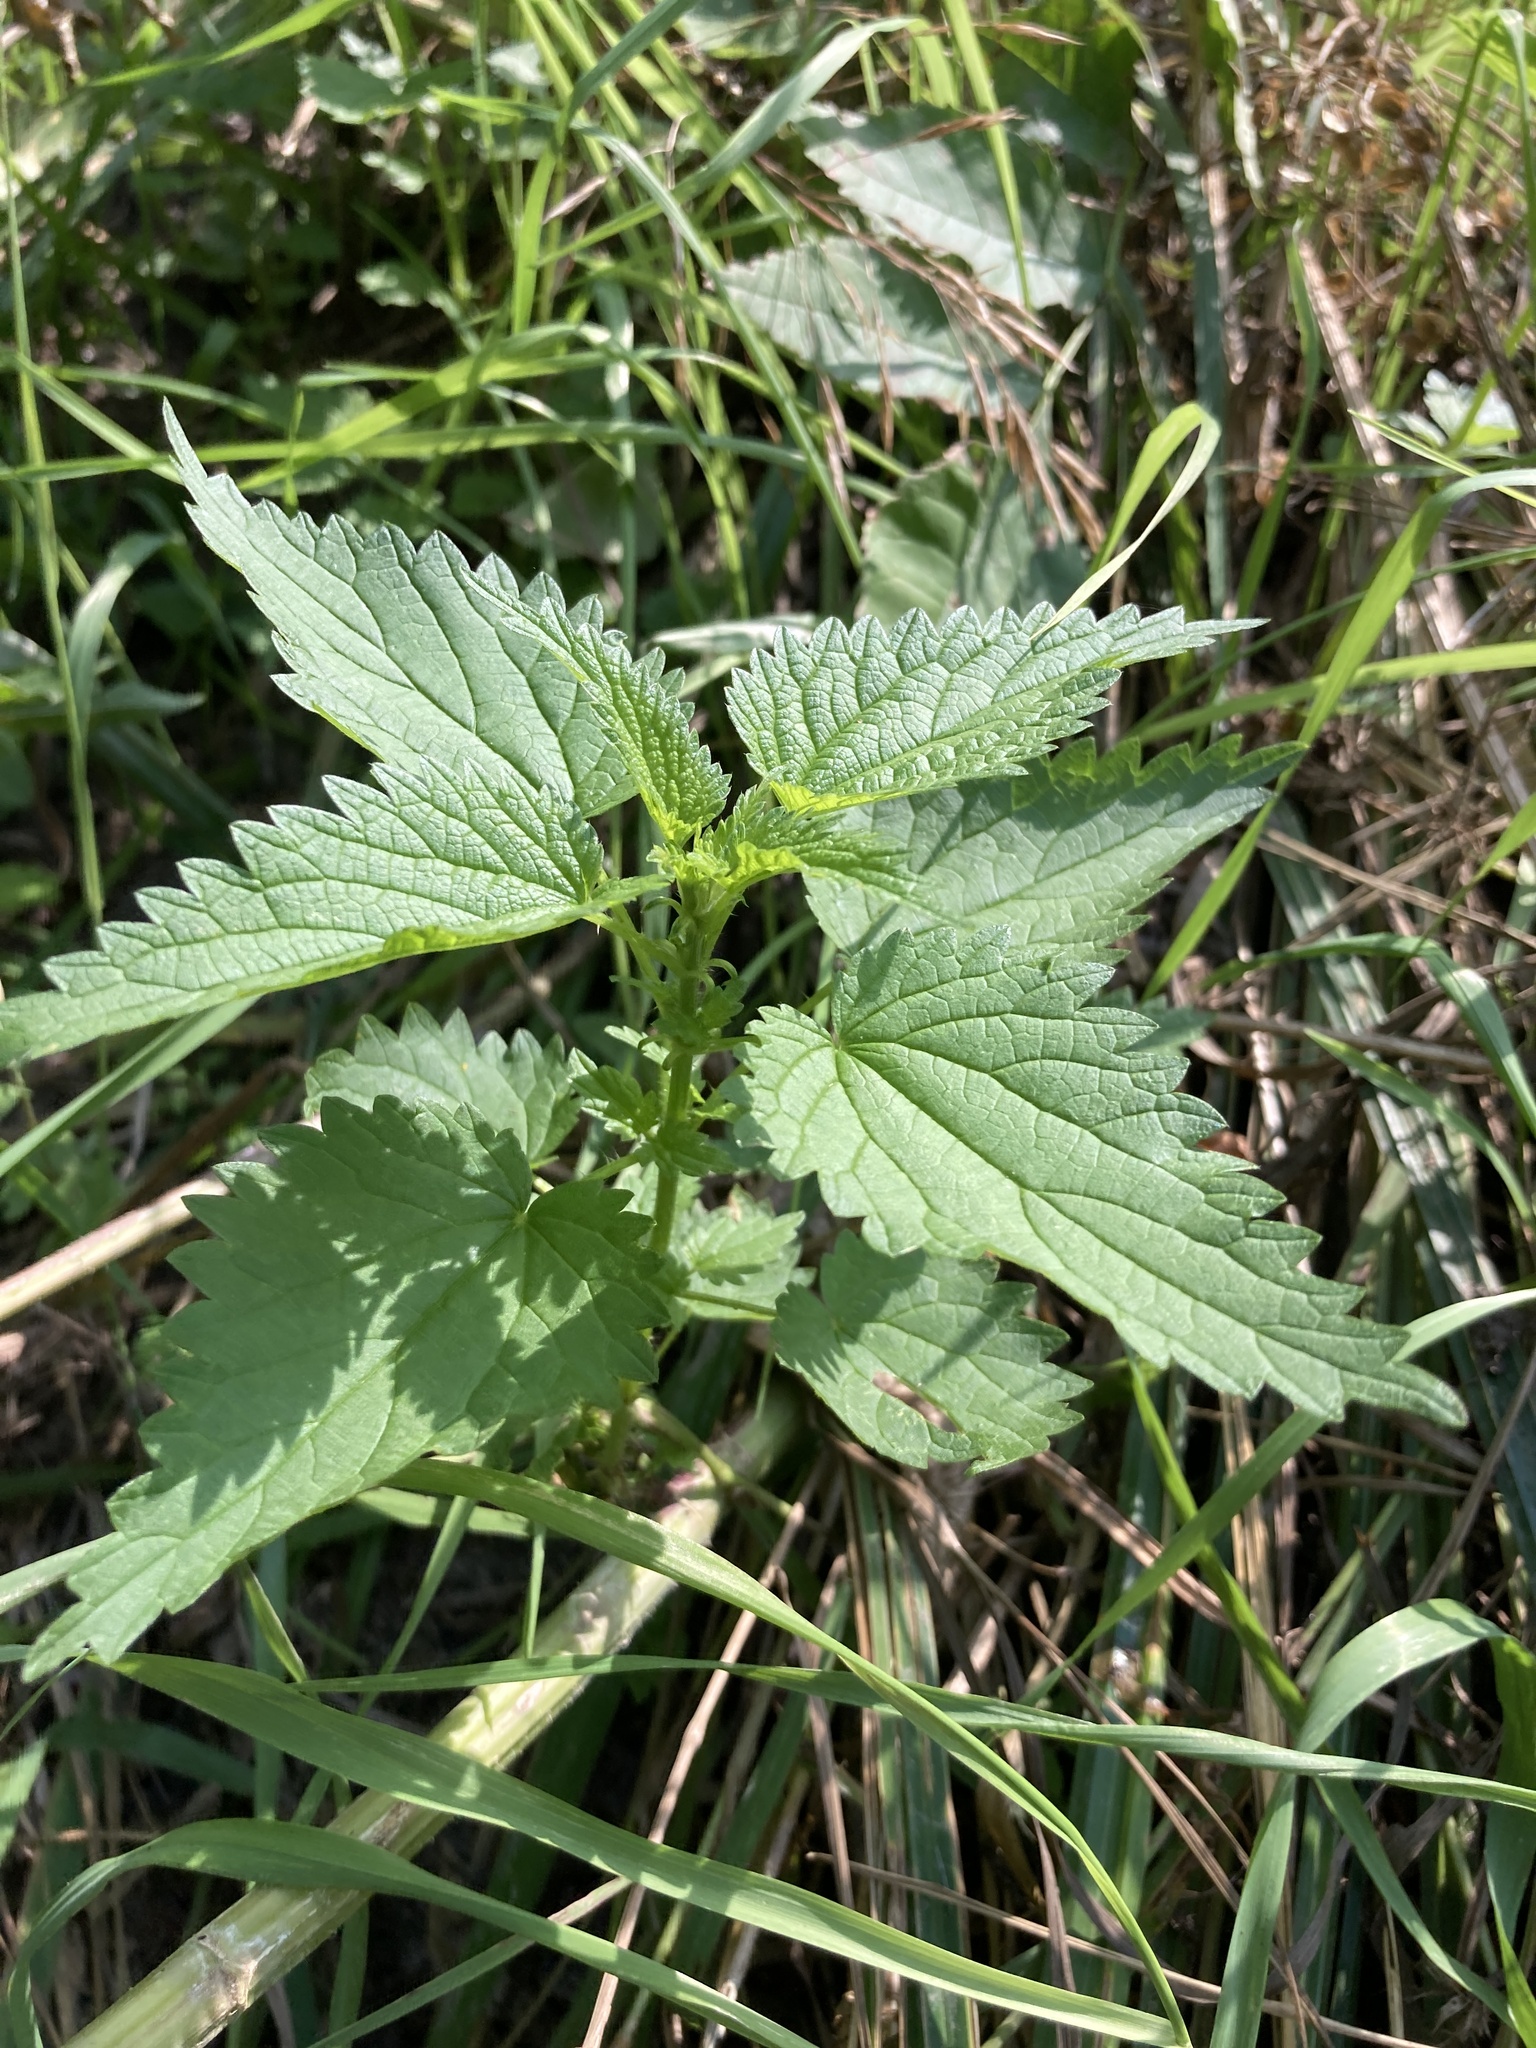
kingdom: Plantae
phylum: Tracheophyta
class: Magnoliopsida
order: Rosales
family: Urticaceae
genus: Urtica
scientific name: Urtica dioica
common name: Common nettle
